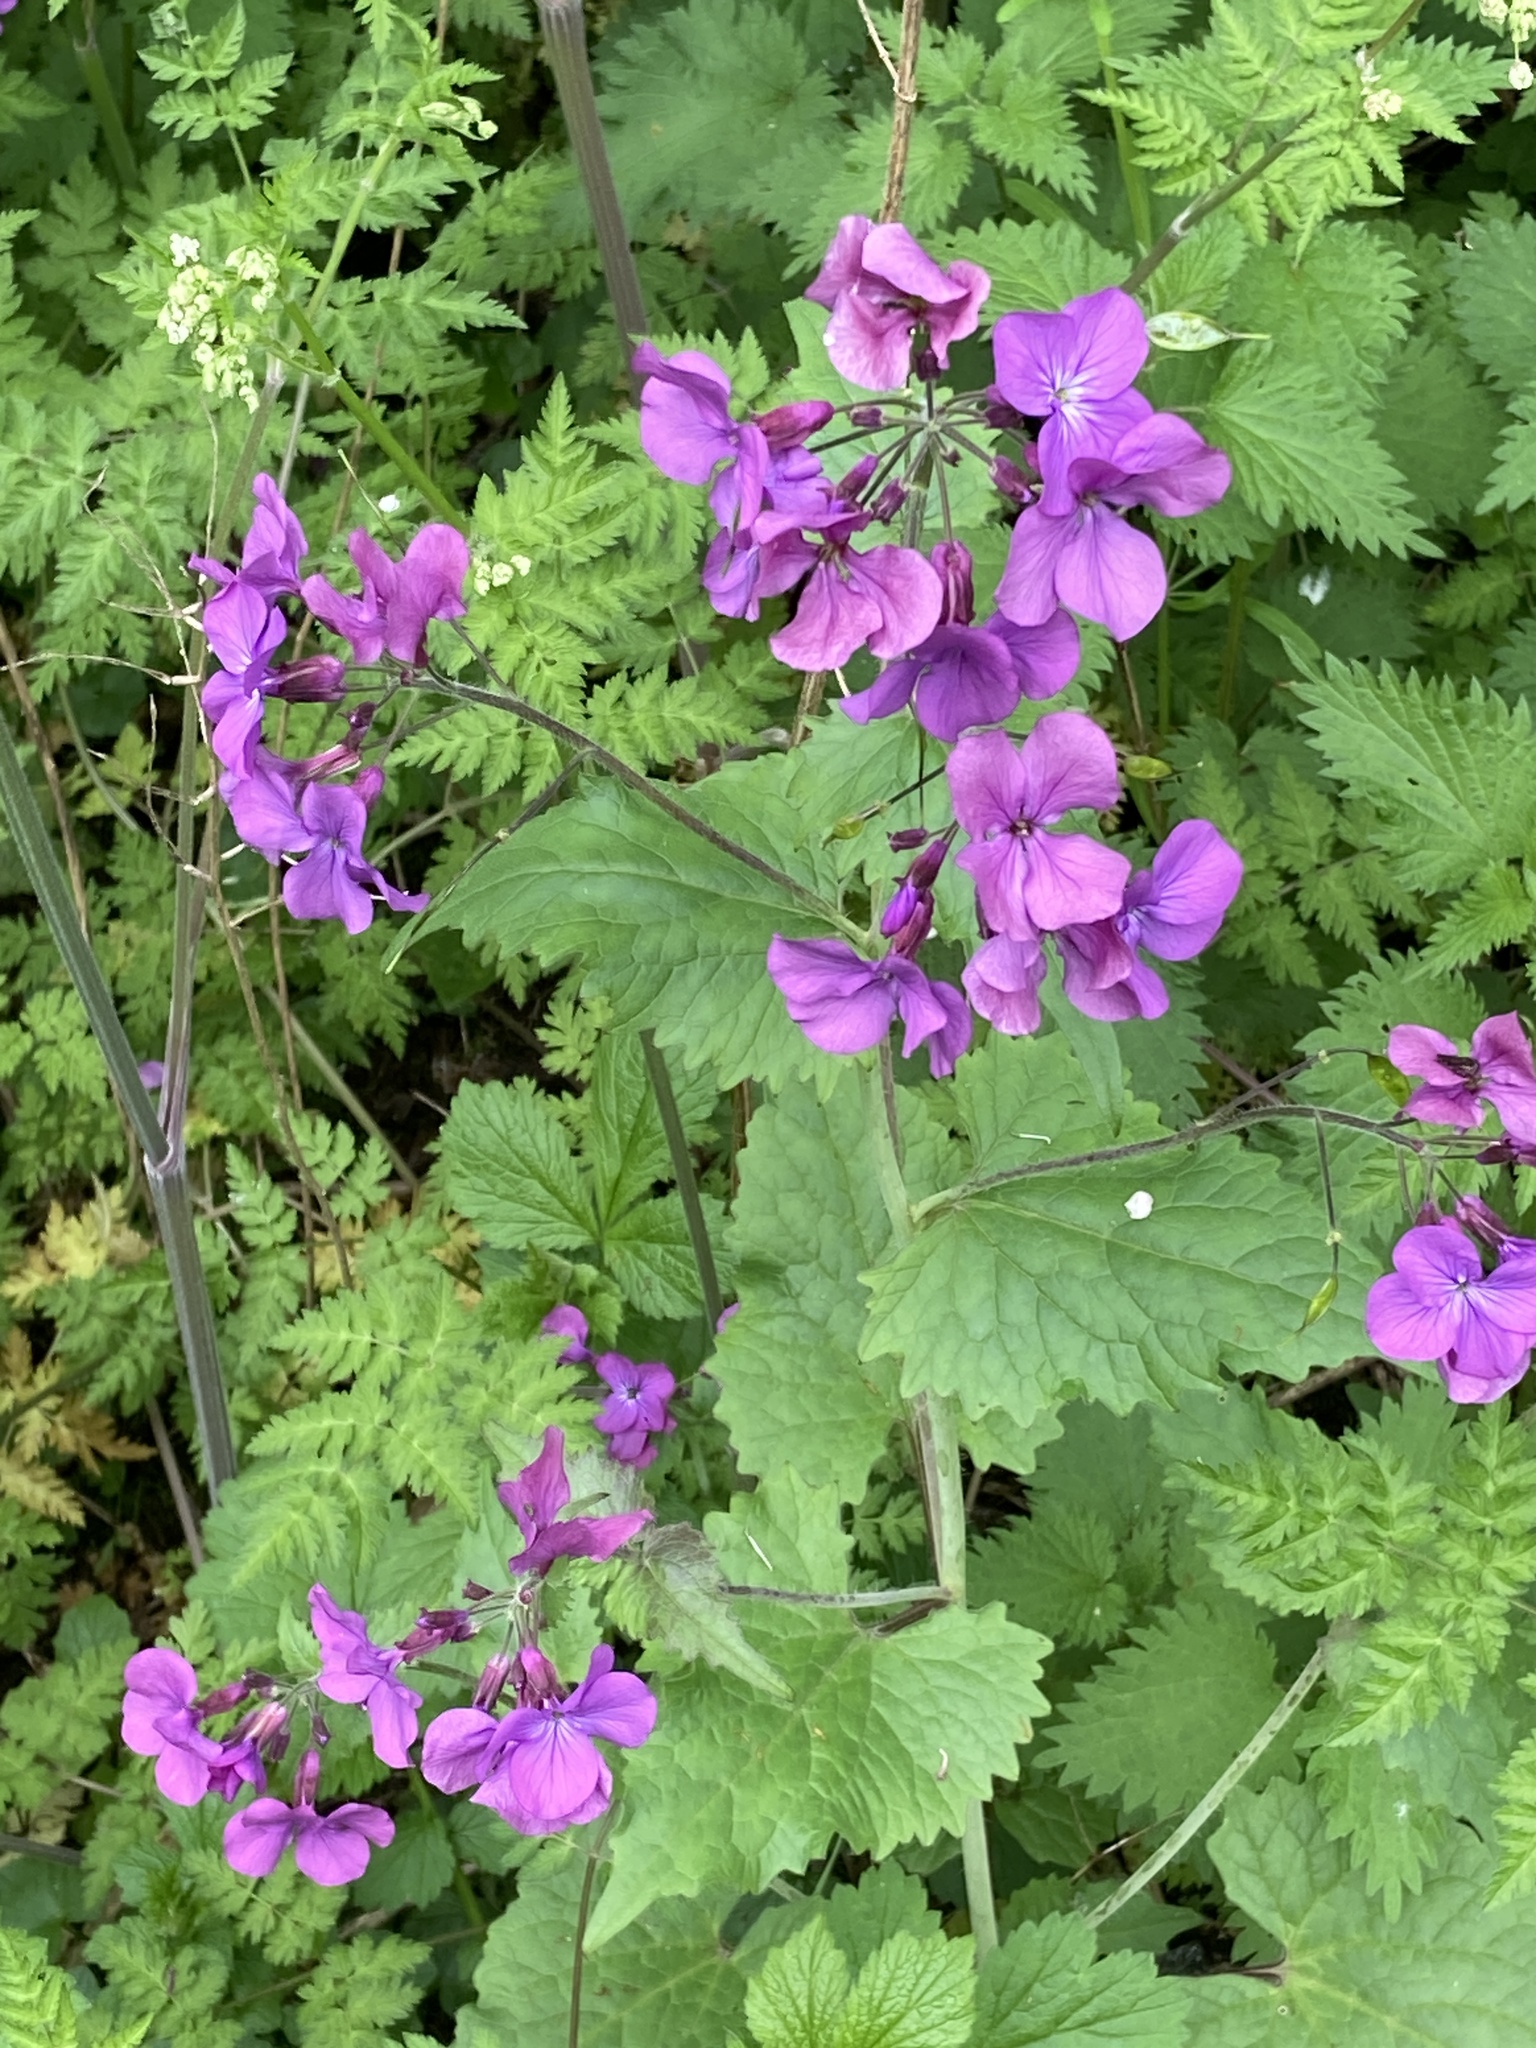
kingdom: Plantae
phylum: Tracheophyta
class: Magnoliopsida
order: Brassicales
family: Brassicaceae
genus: Lunaria
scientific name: Lunaria annua
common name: Honesty
